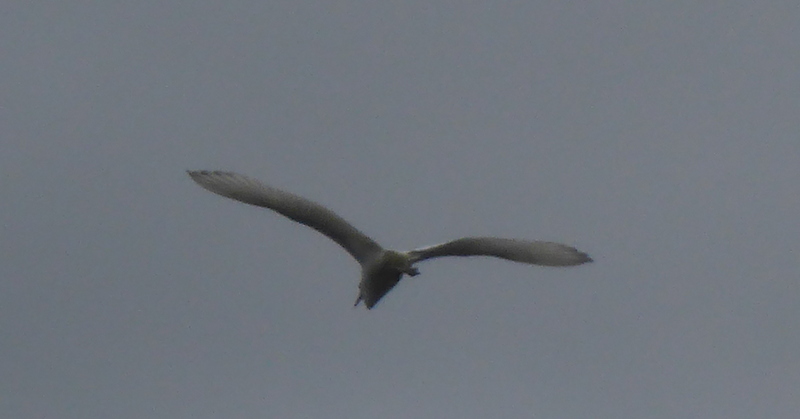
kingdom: Animalia
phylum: Chordata
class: Aves
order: Pelecaniformes
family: Ardeidae
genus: Egretta
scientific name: Egretta caerulea
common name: Little blue heron
